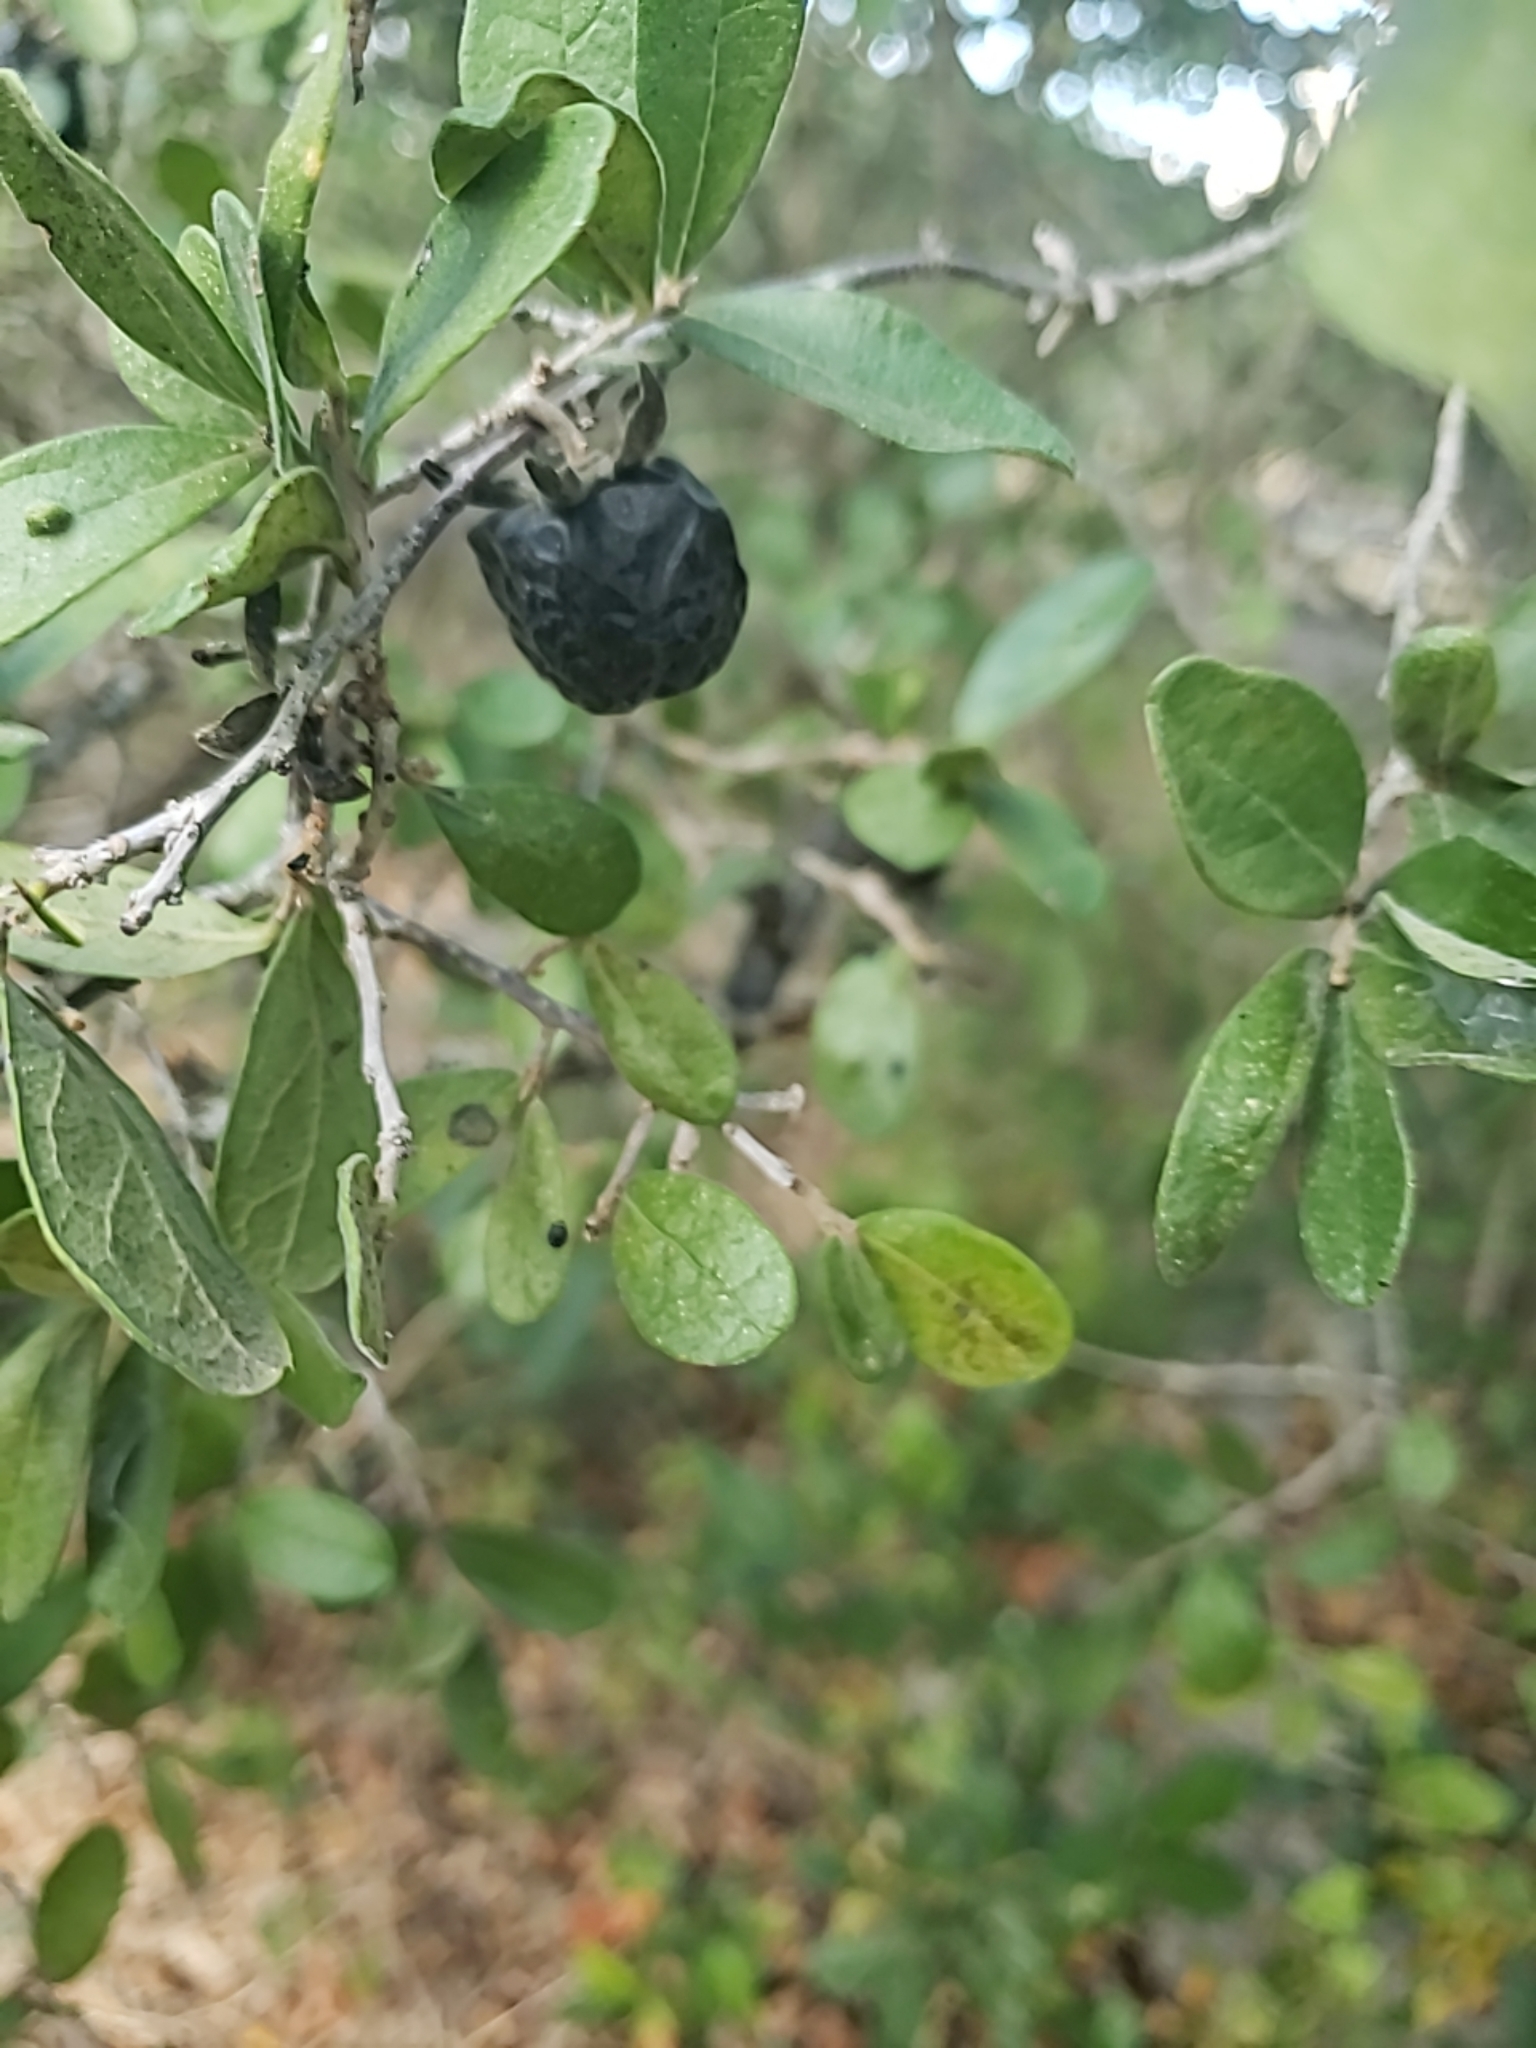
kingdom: Plantae
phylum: Tracheophyta
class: Magnoliopsida
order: Ericales
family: Ebenaceae
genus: Diospyros
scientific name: Diospyros texana
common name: Texas persimmon
